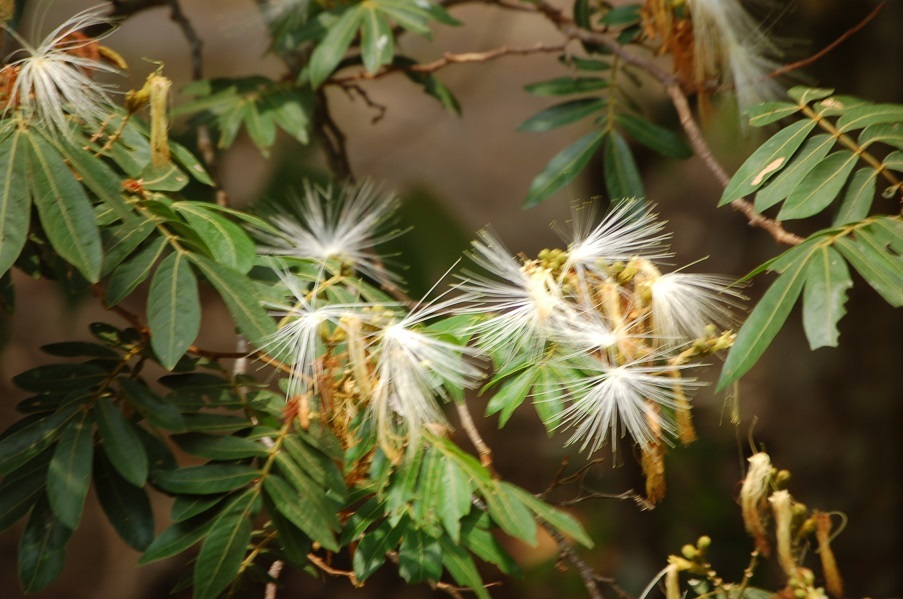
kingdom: Plantae
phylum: Tracheophyta
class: Magnoliopsida
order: Fabales
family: Fabaceae
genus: Inga
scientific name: Inga vera
